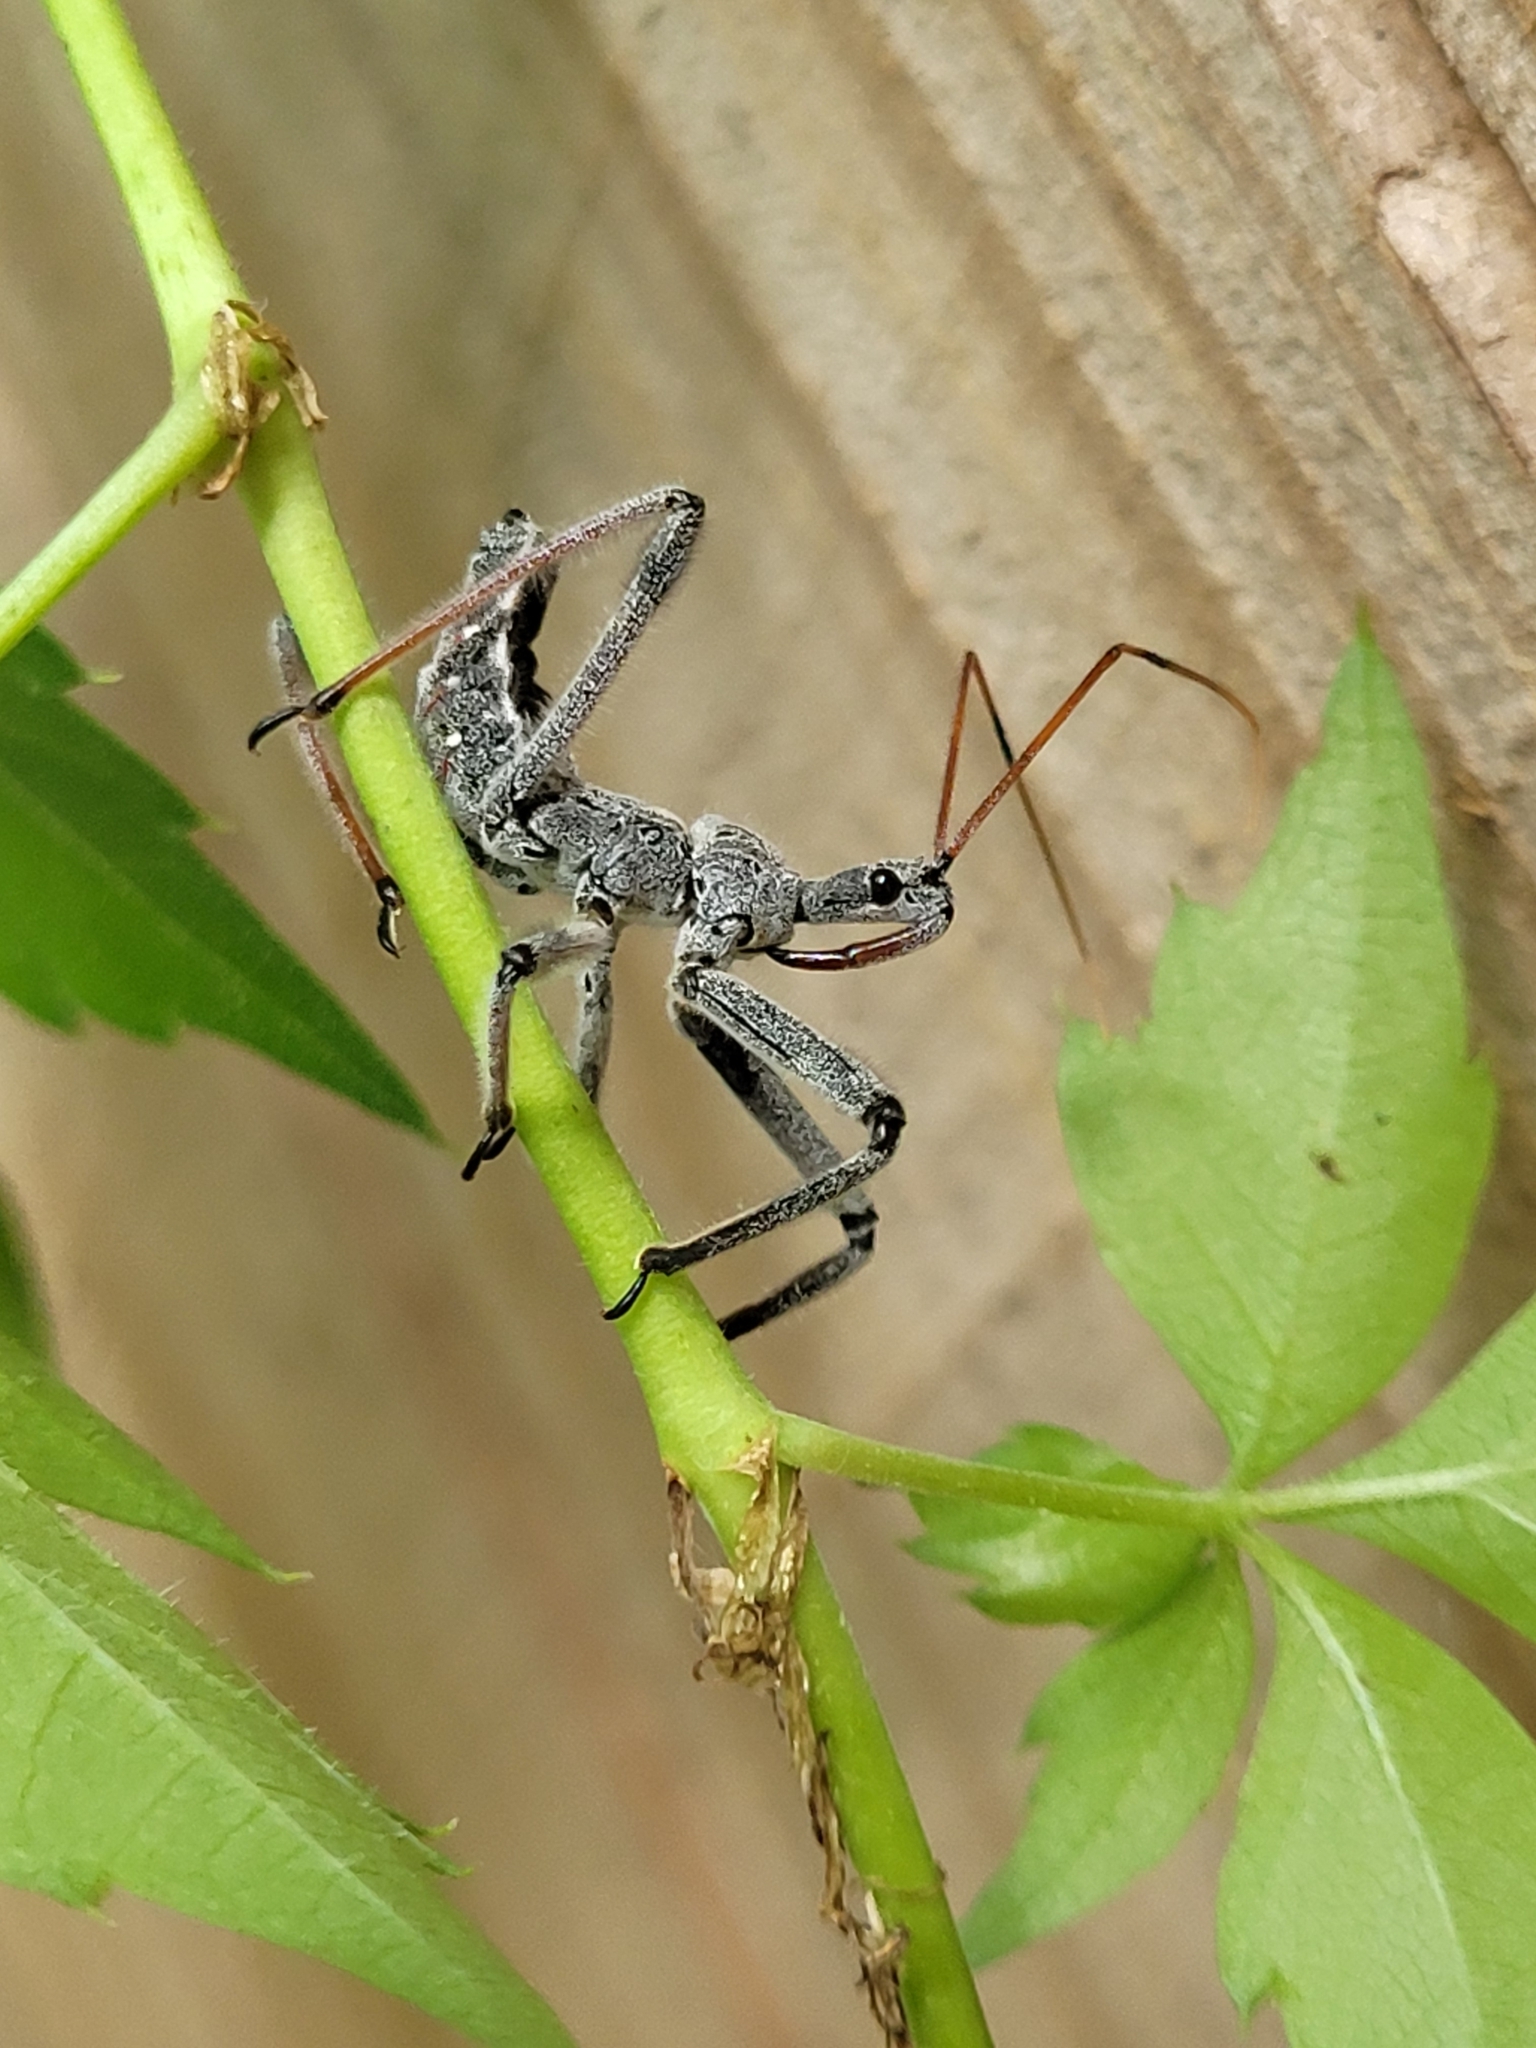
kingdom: Animalia
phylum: Arthropoda
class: Insecta
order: Hemiptera
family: Reduviidae
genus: Arilus
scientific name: Arilus cristatus
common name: North american wheel bug
